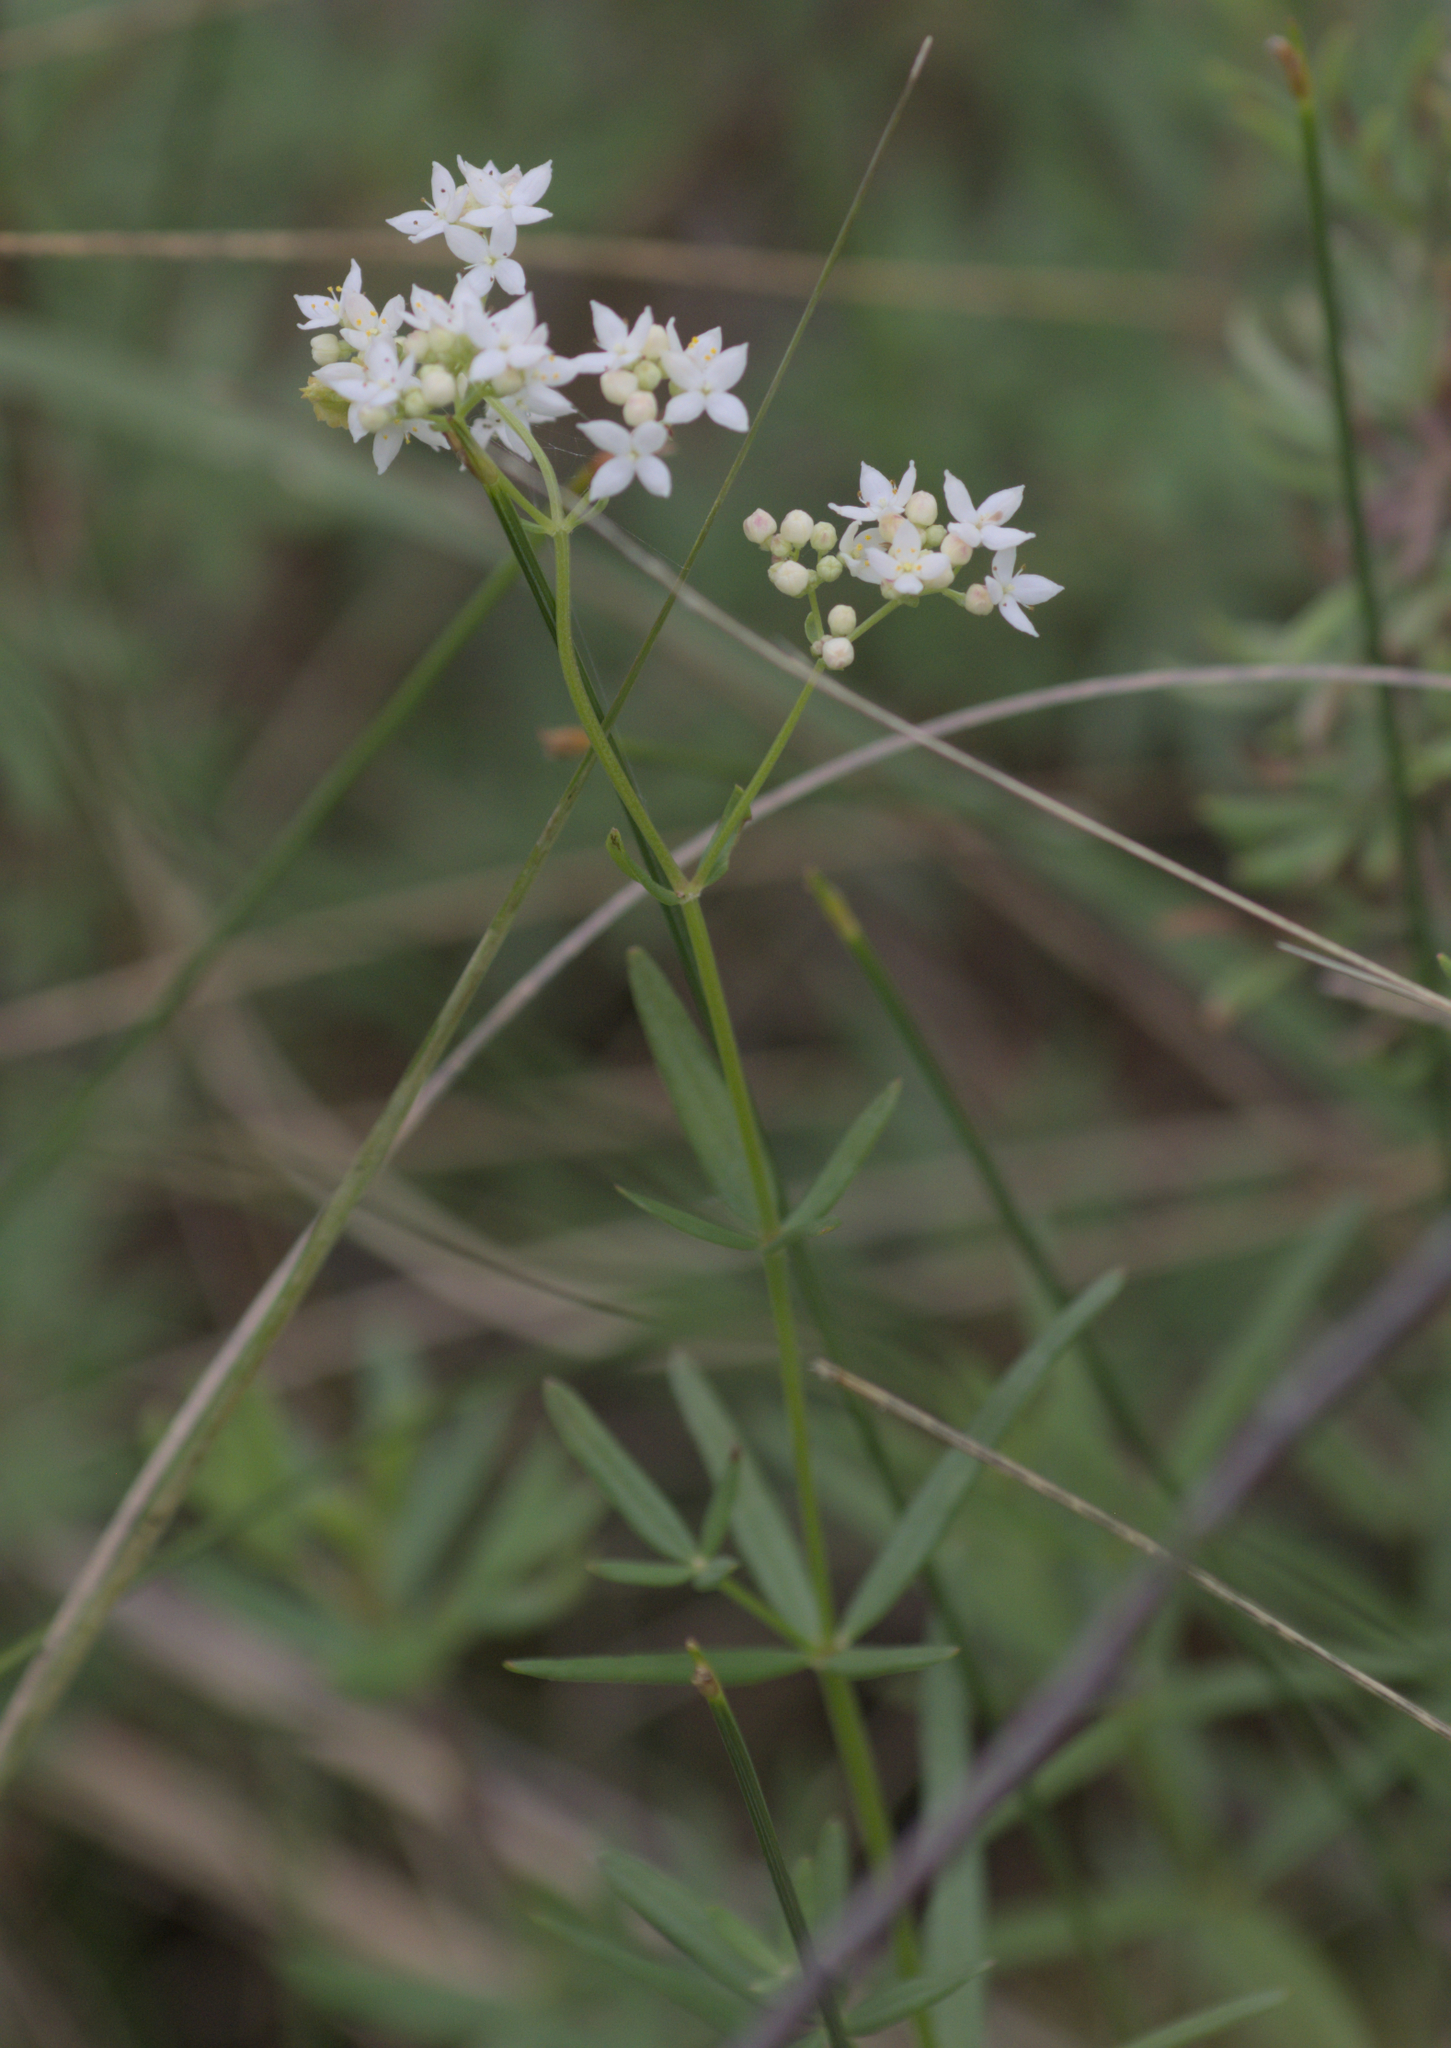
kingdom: Plantae
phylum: Tracheophyta
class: Magnoliopsida
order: Gentianales
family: Rubiaceae
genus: Galium
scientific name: Galium boreale
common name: Northern bedstraw
